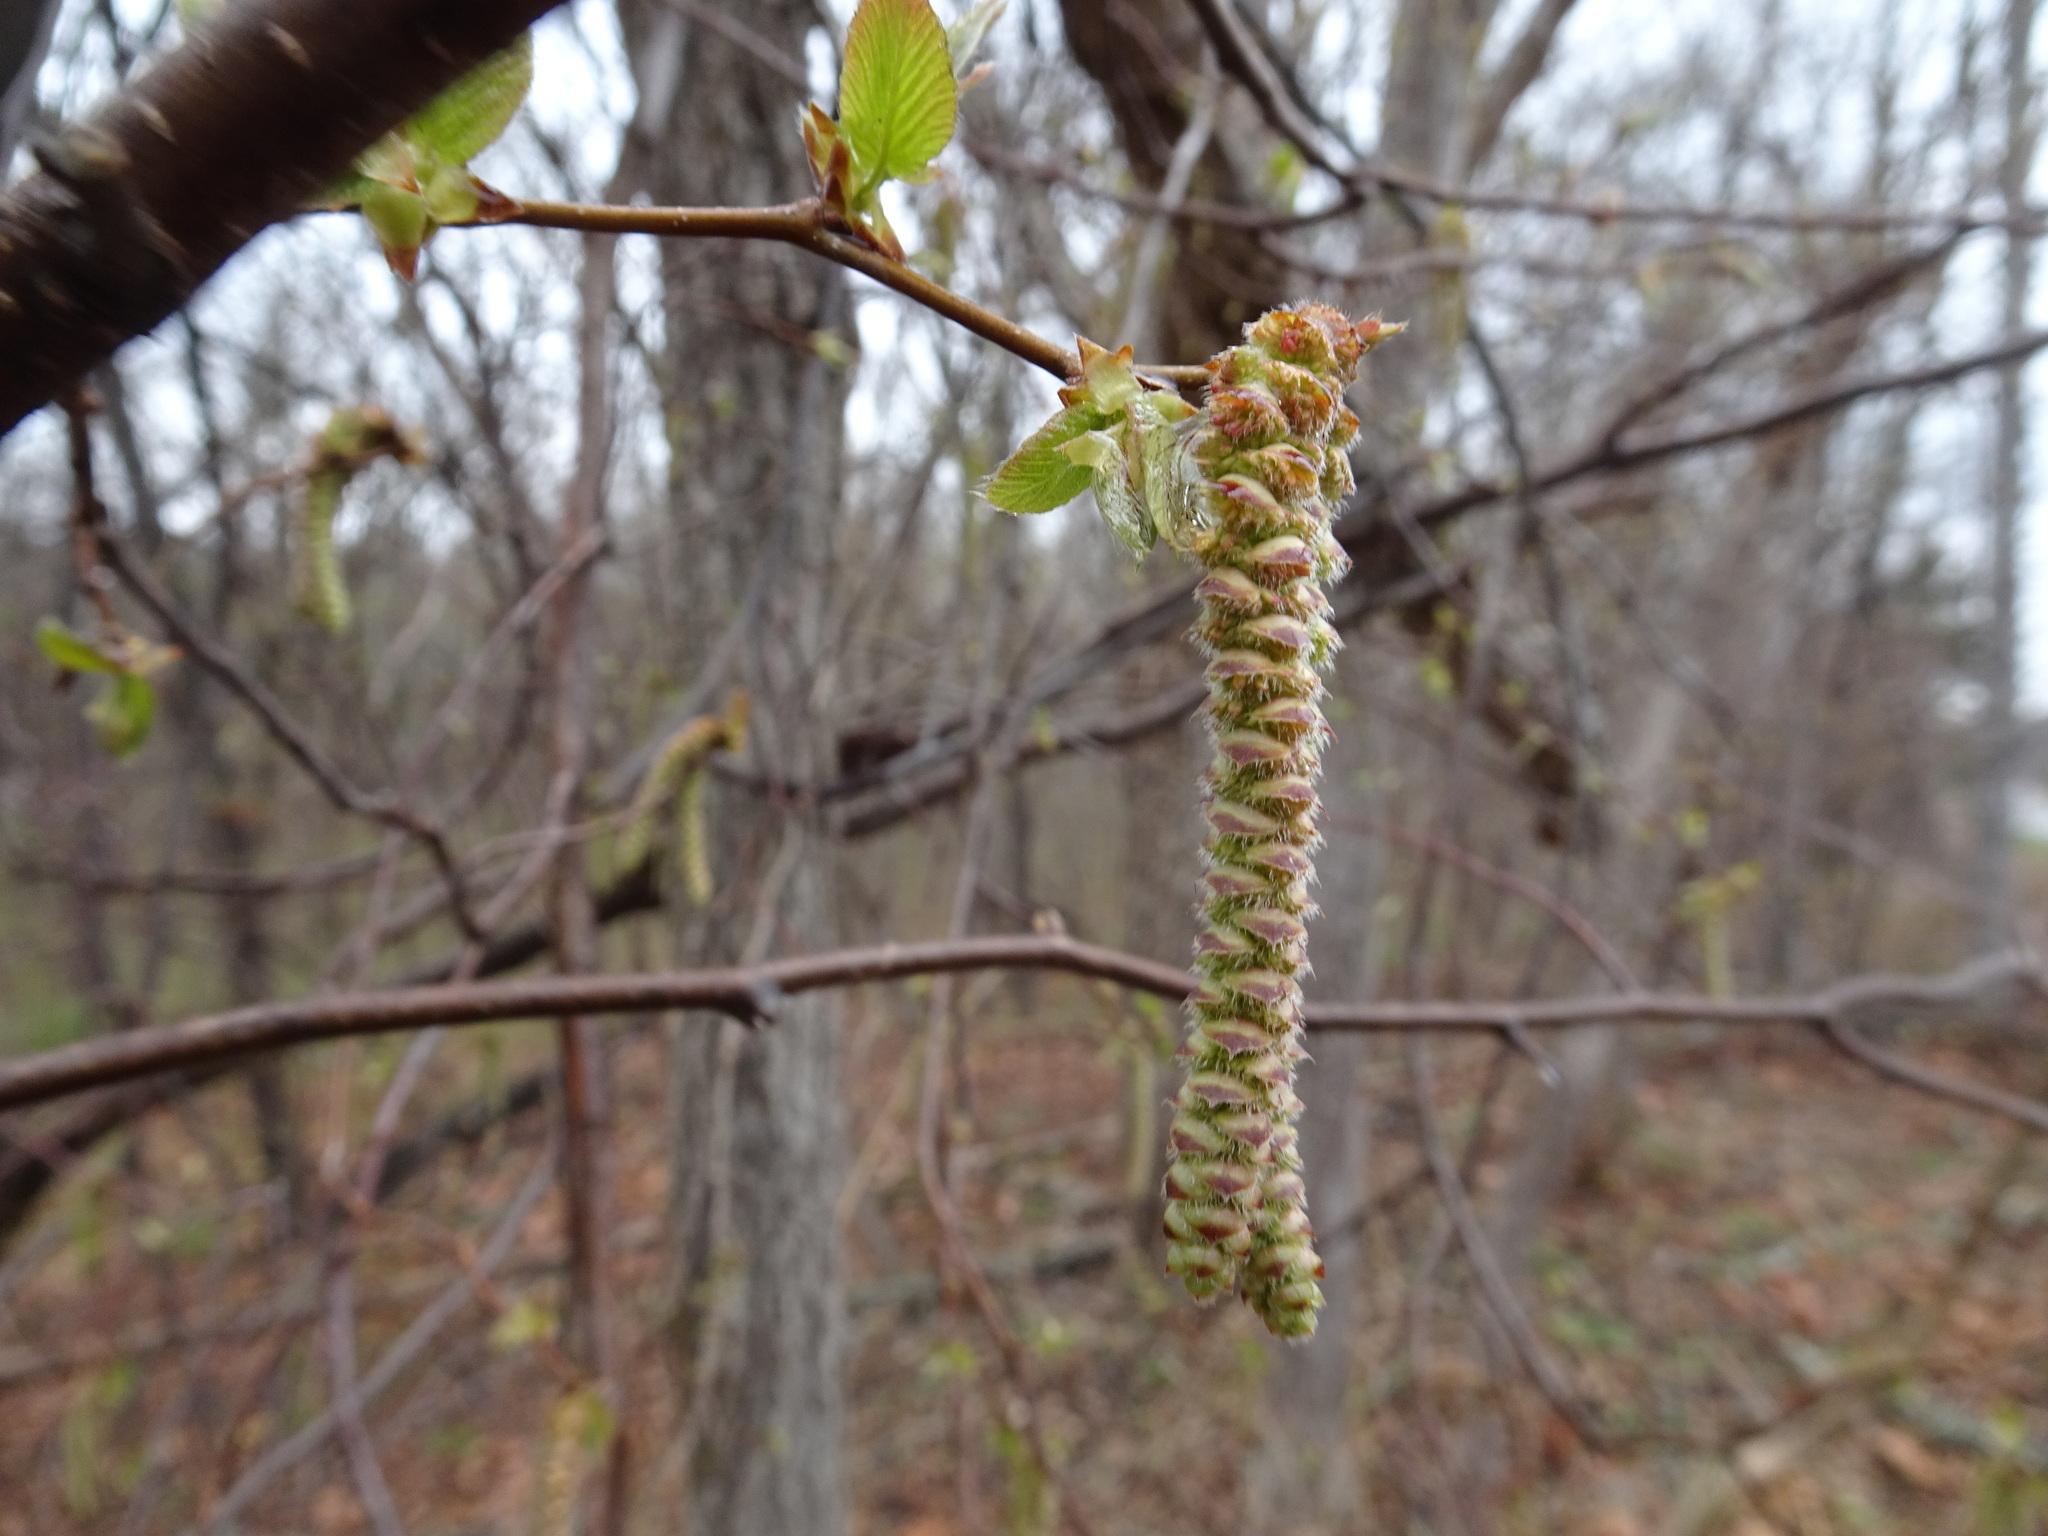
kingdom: Plantae
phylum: Tracheophyta
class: Magnoliopsida
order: Fagales
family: Betulaceae
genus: Carpinus
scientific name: Carpinus caroliniana
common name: American hornbeam
